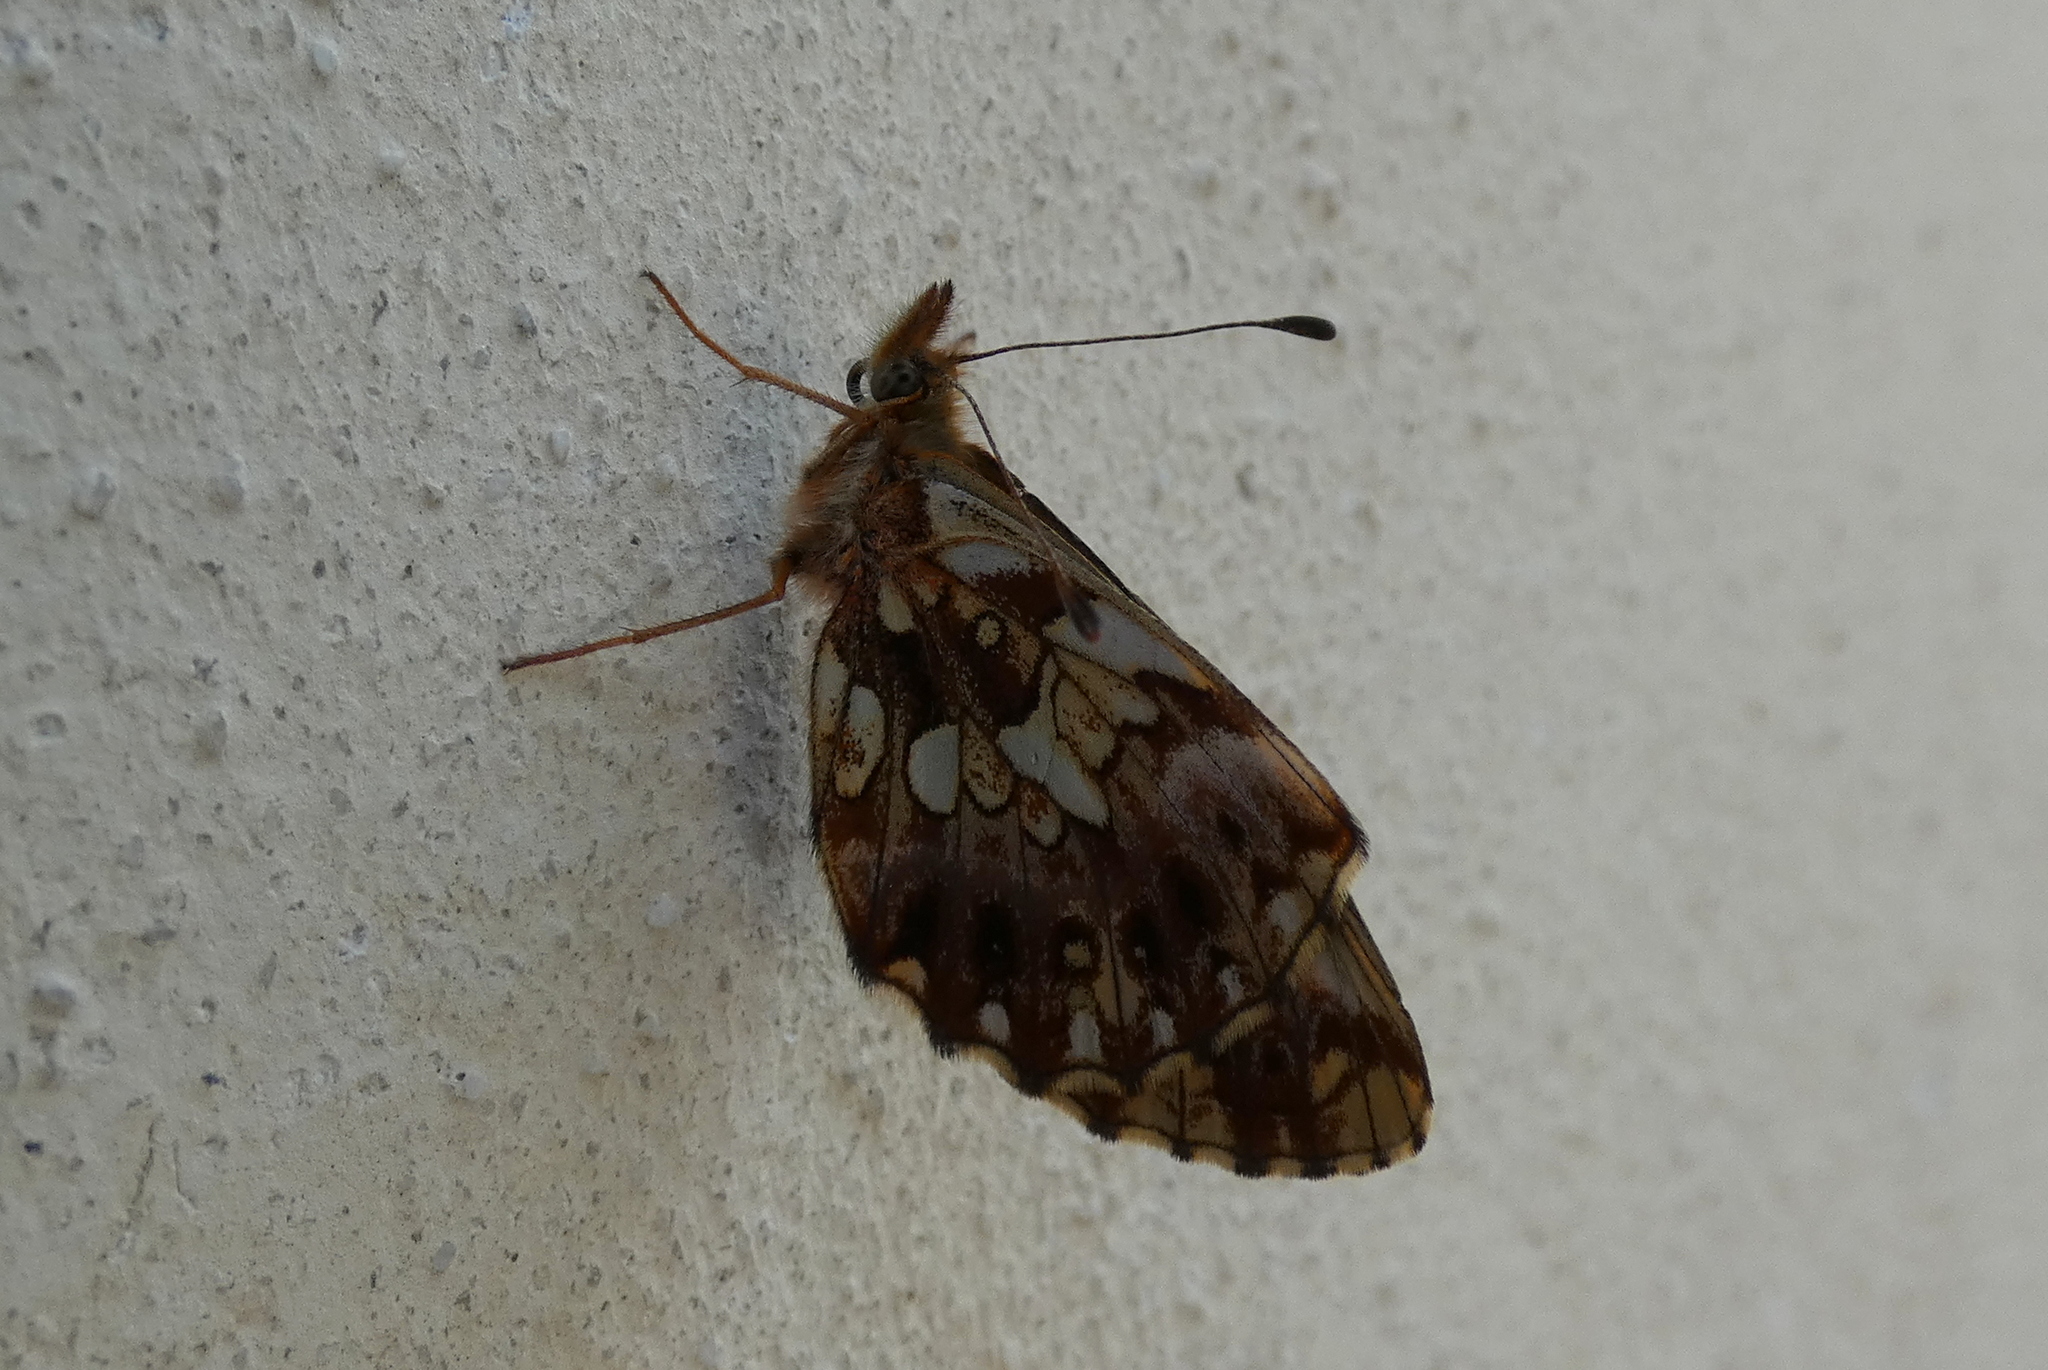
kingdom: Animalia
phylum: Arthropoda
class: Insecta
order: Lepidoptera
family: Nymphalidae
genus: Boloria
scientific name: Boloria dia
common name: Weaver's fritillary
